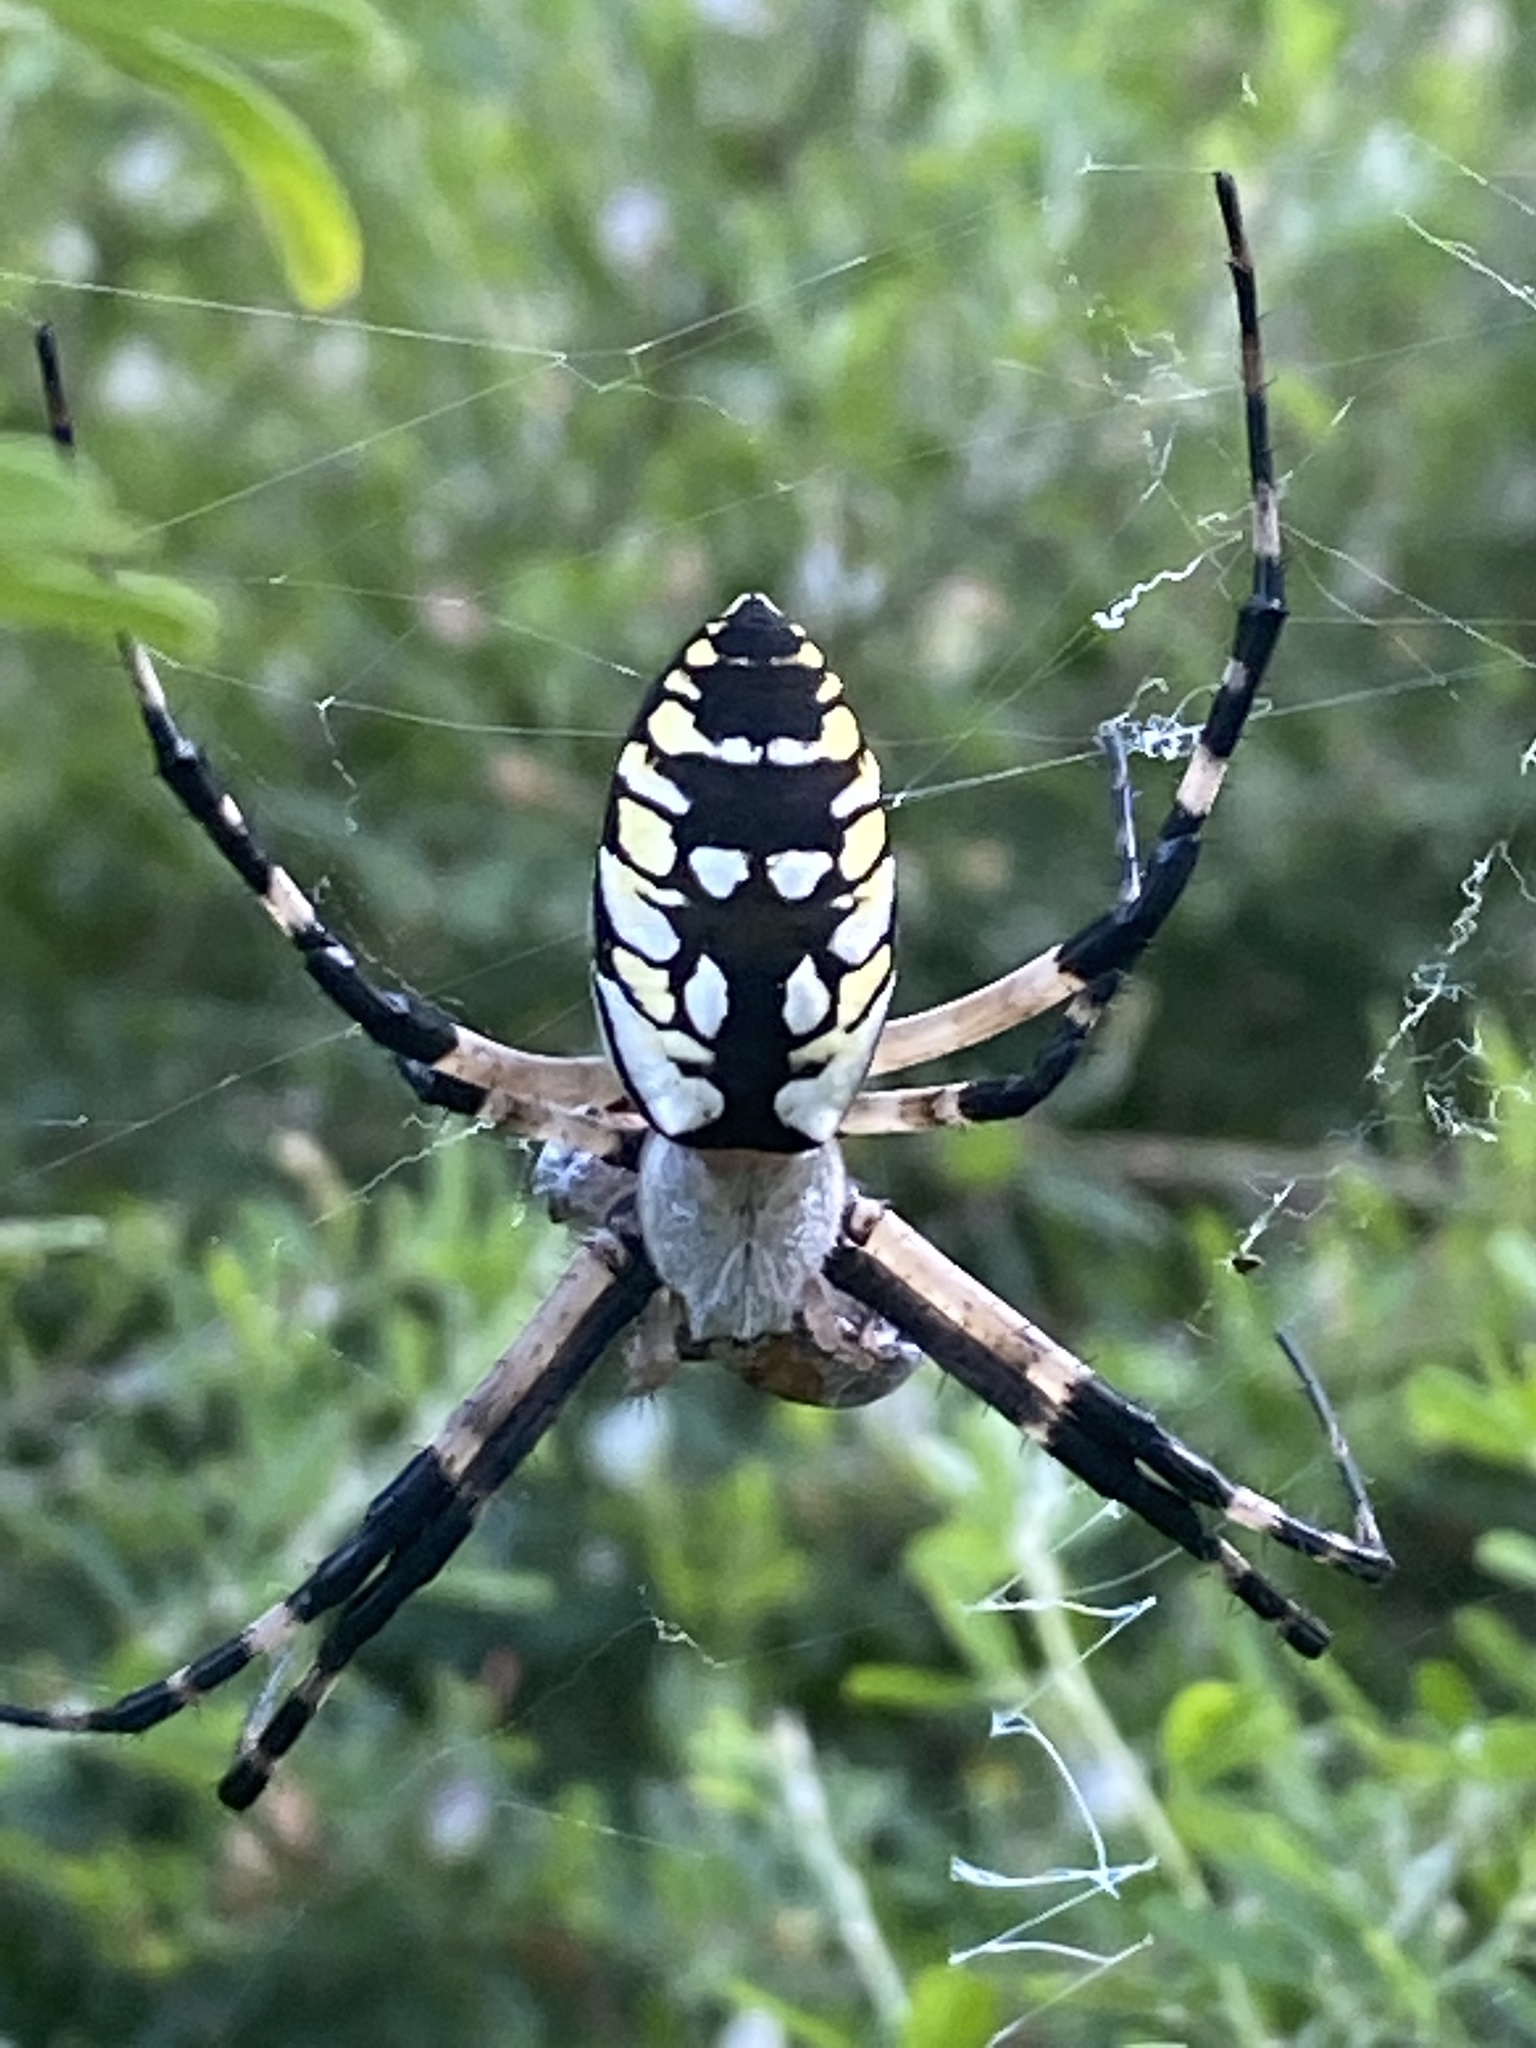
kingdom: Animalia
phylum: Arthropoda
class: Arachnida
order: Araneae
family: Araneidae
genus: Argiope
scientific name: Argiope aurantia
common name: Orb weavers
